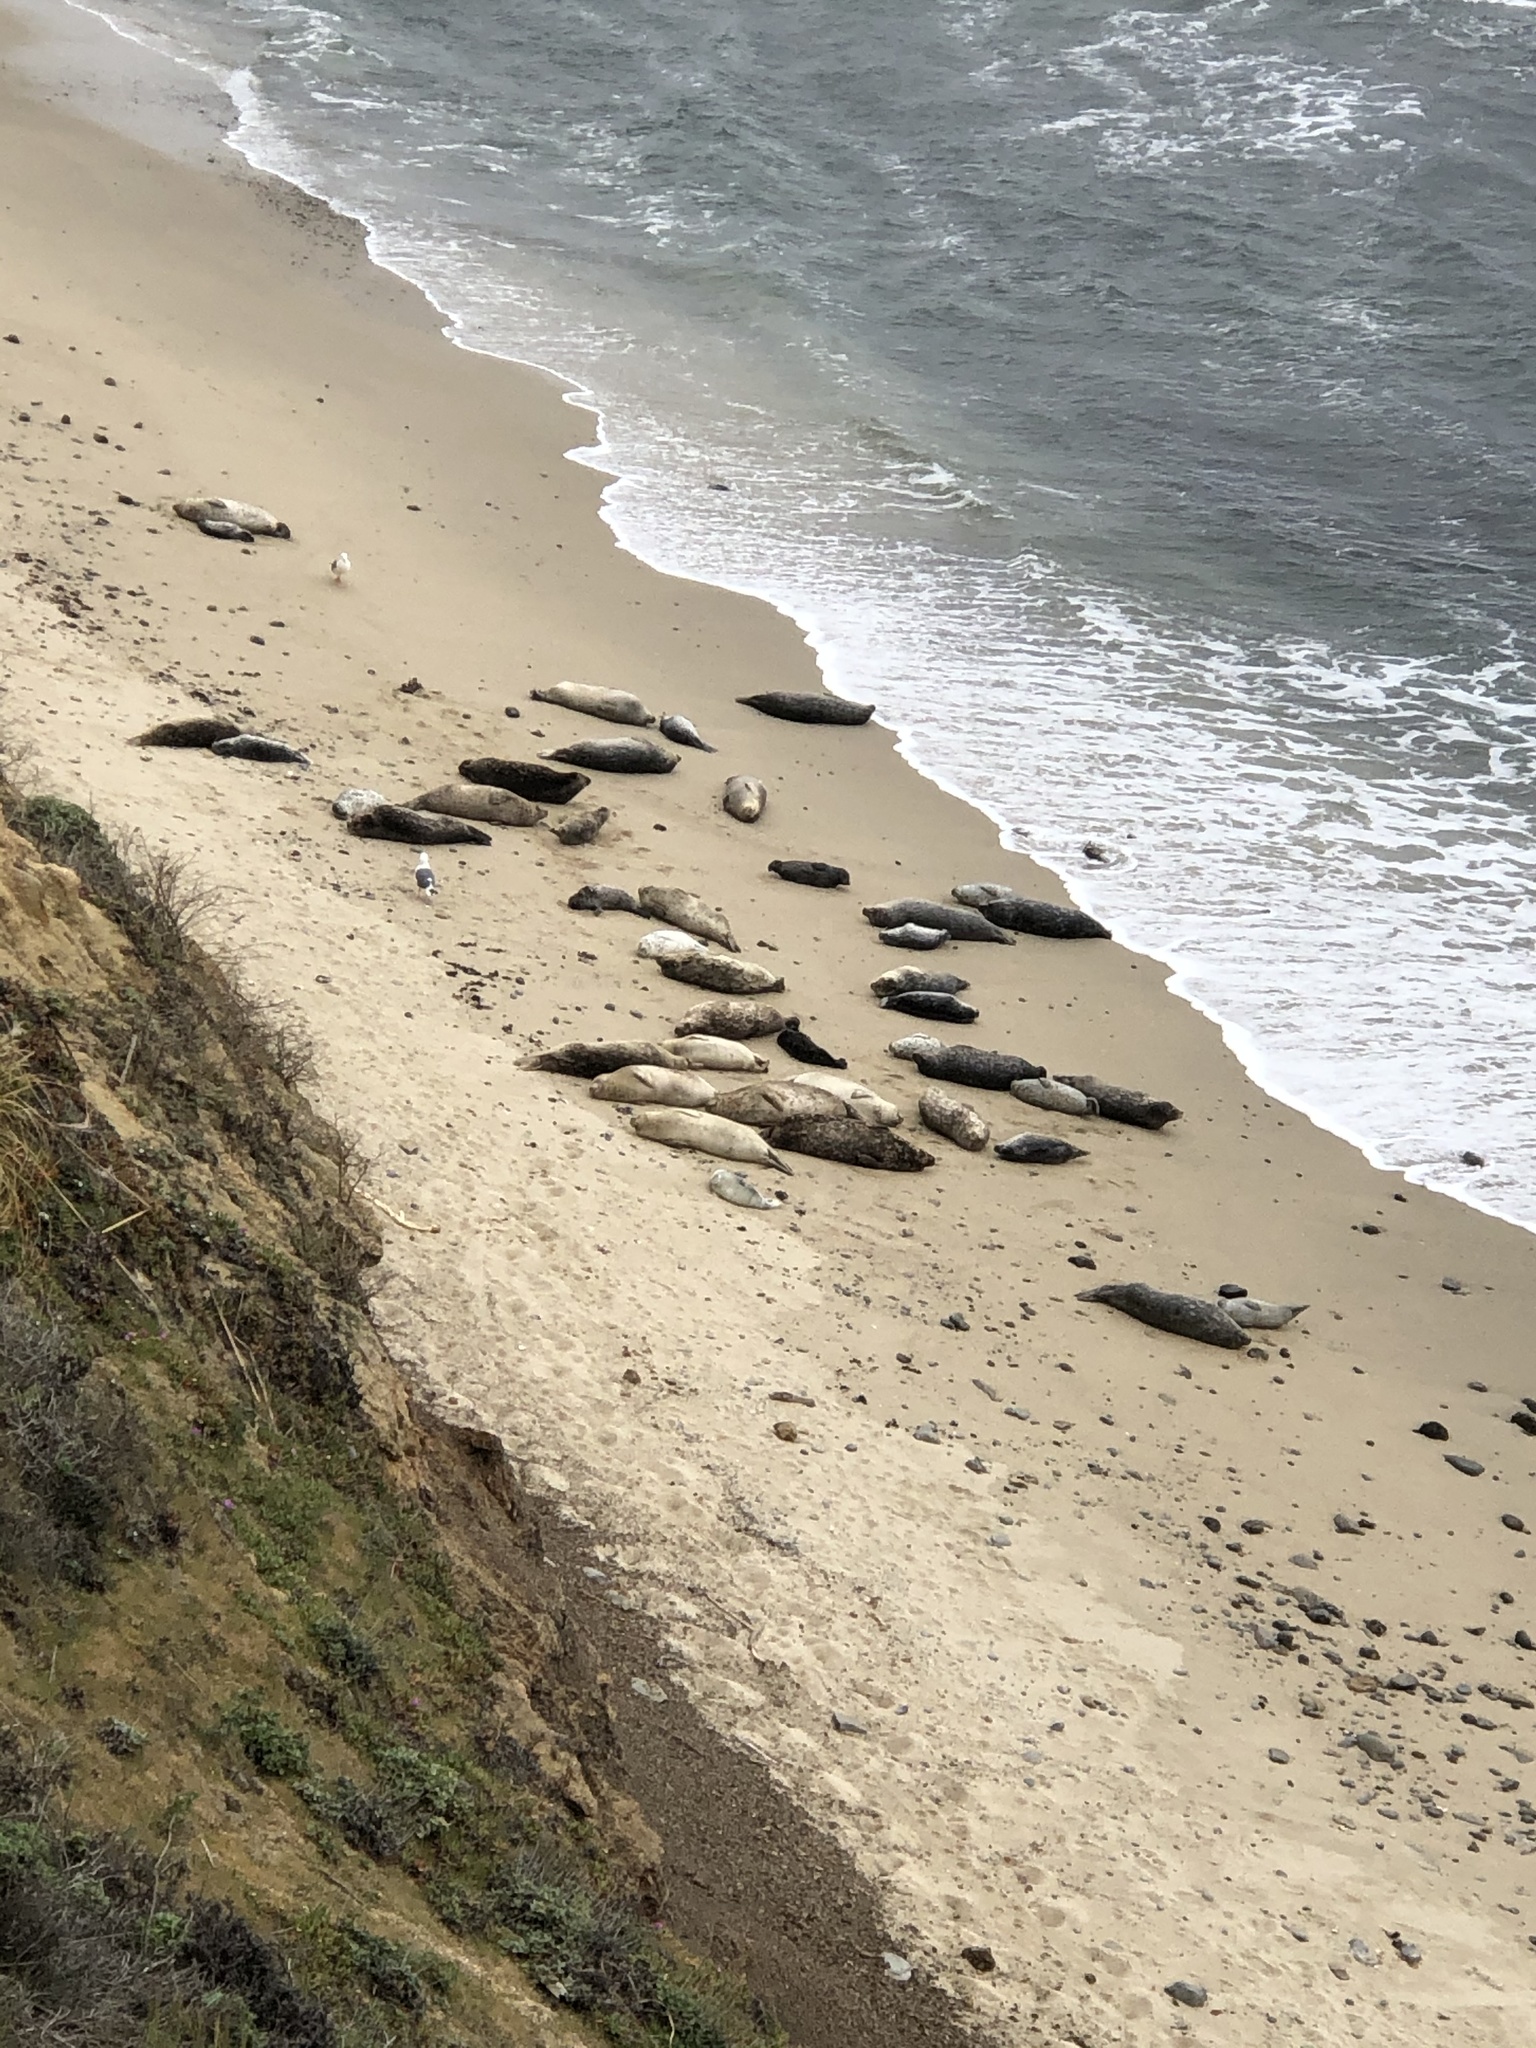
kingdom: Animalia
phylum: Chordata
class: Mammalia
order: Carnivora
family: Phocidae
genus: Phoca
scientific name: Phoca vitulina
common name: Harbor seal
